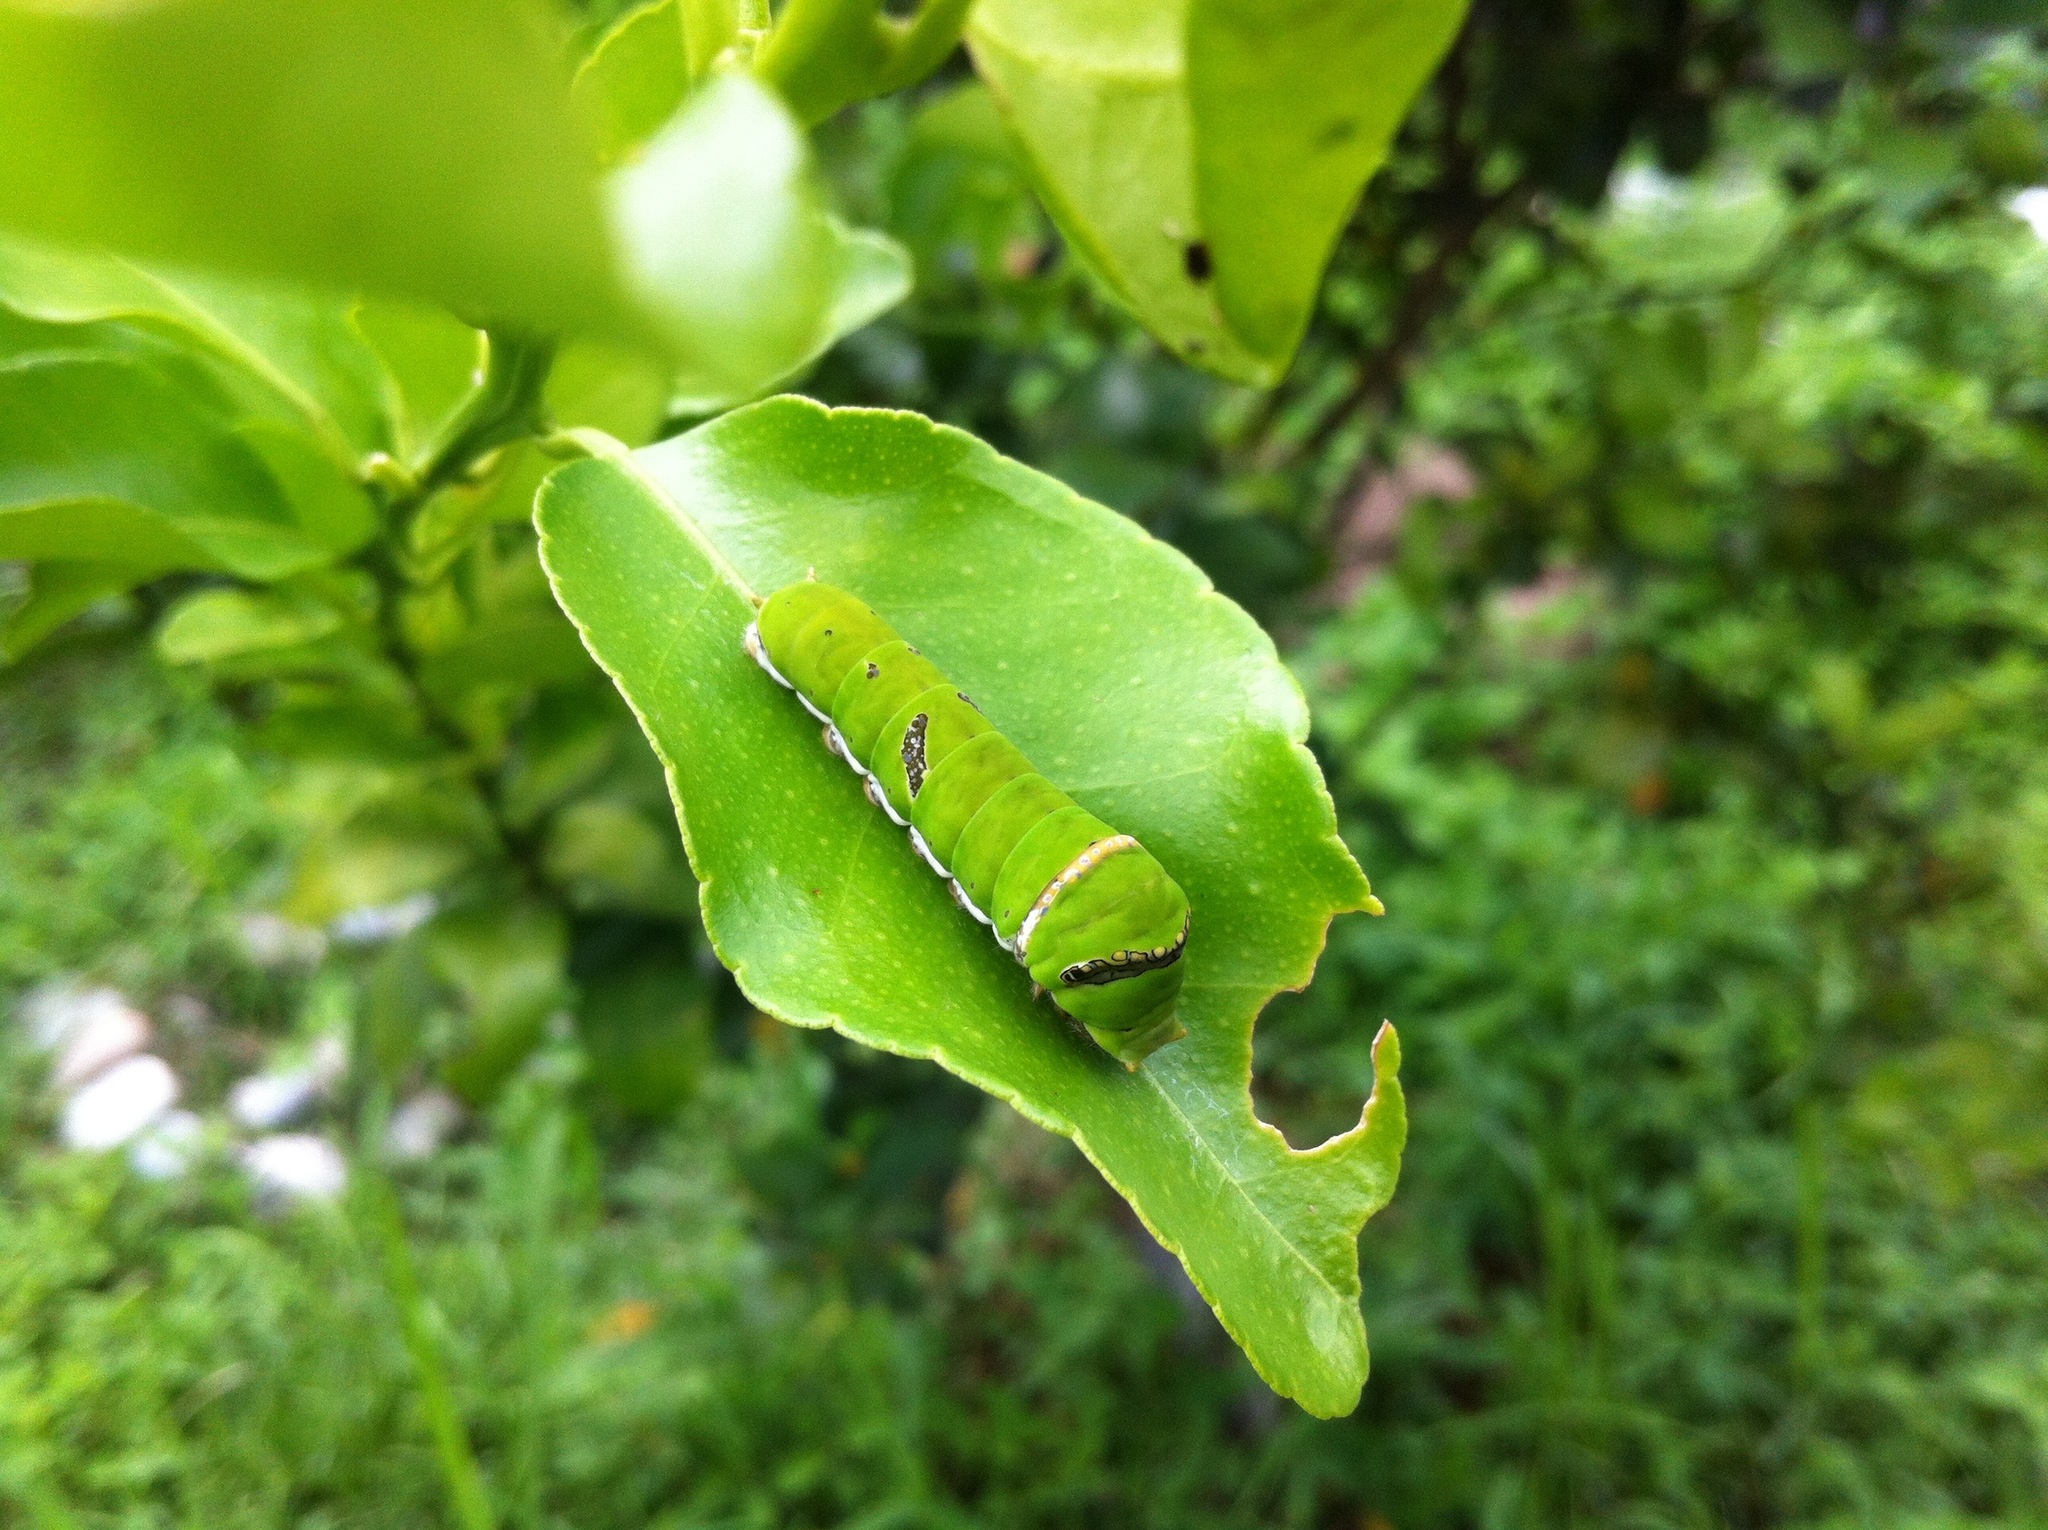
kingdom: Animalia
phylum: Arthropoda
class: Insecta
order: Lepidoptera
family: Papilionidae
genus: Papilio
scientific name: Papilio polytes
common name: Common mormon
